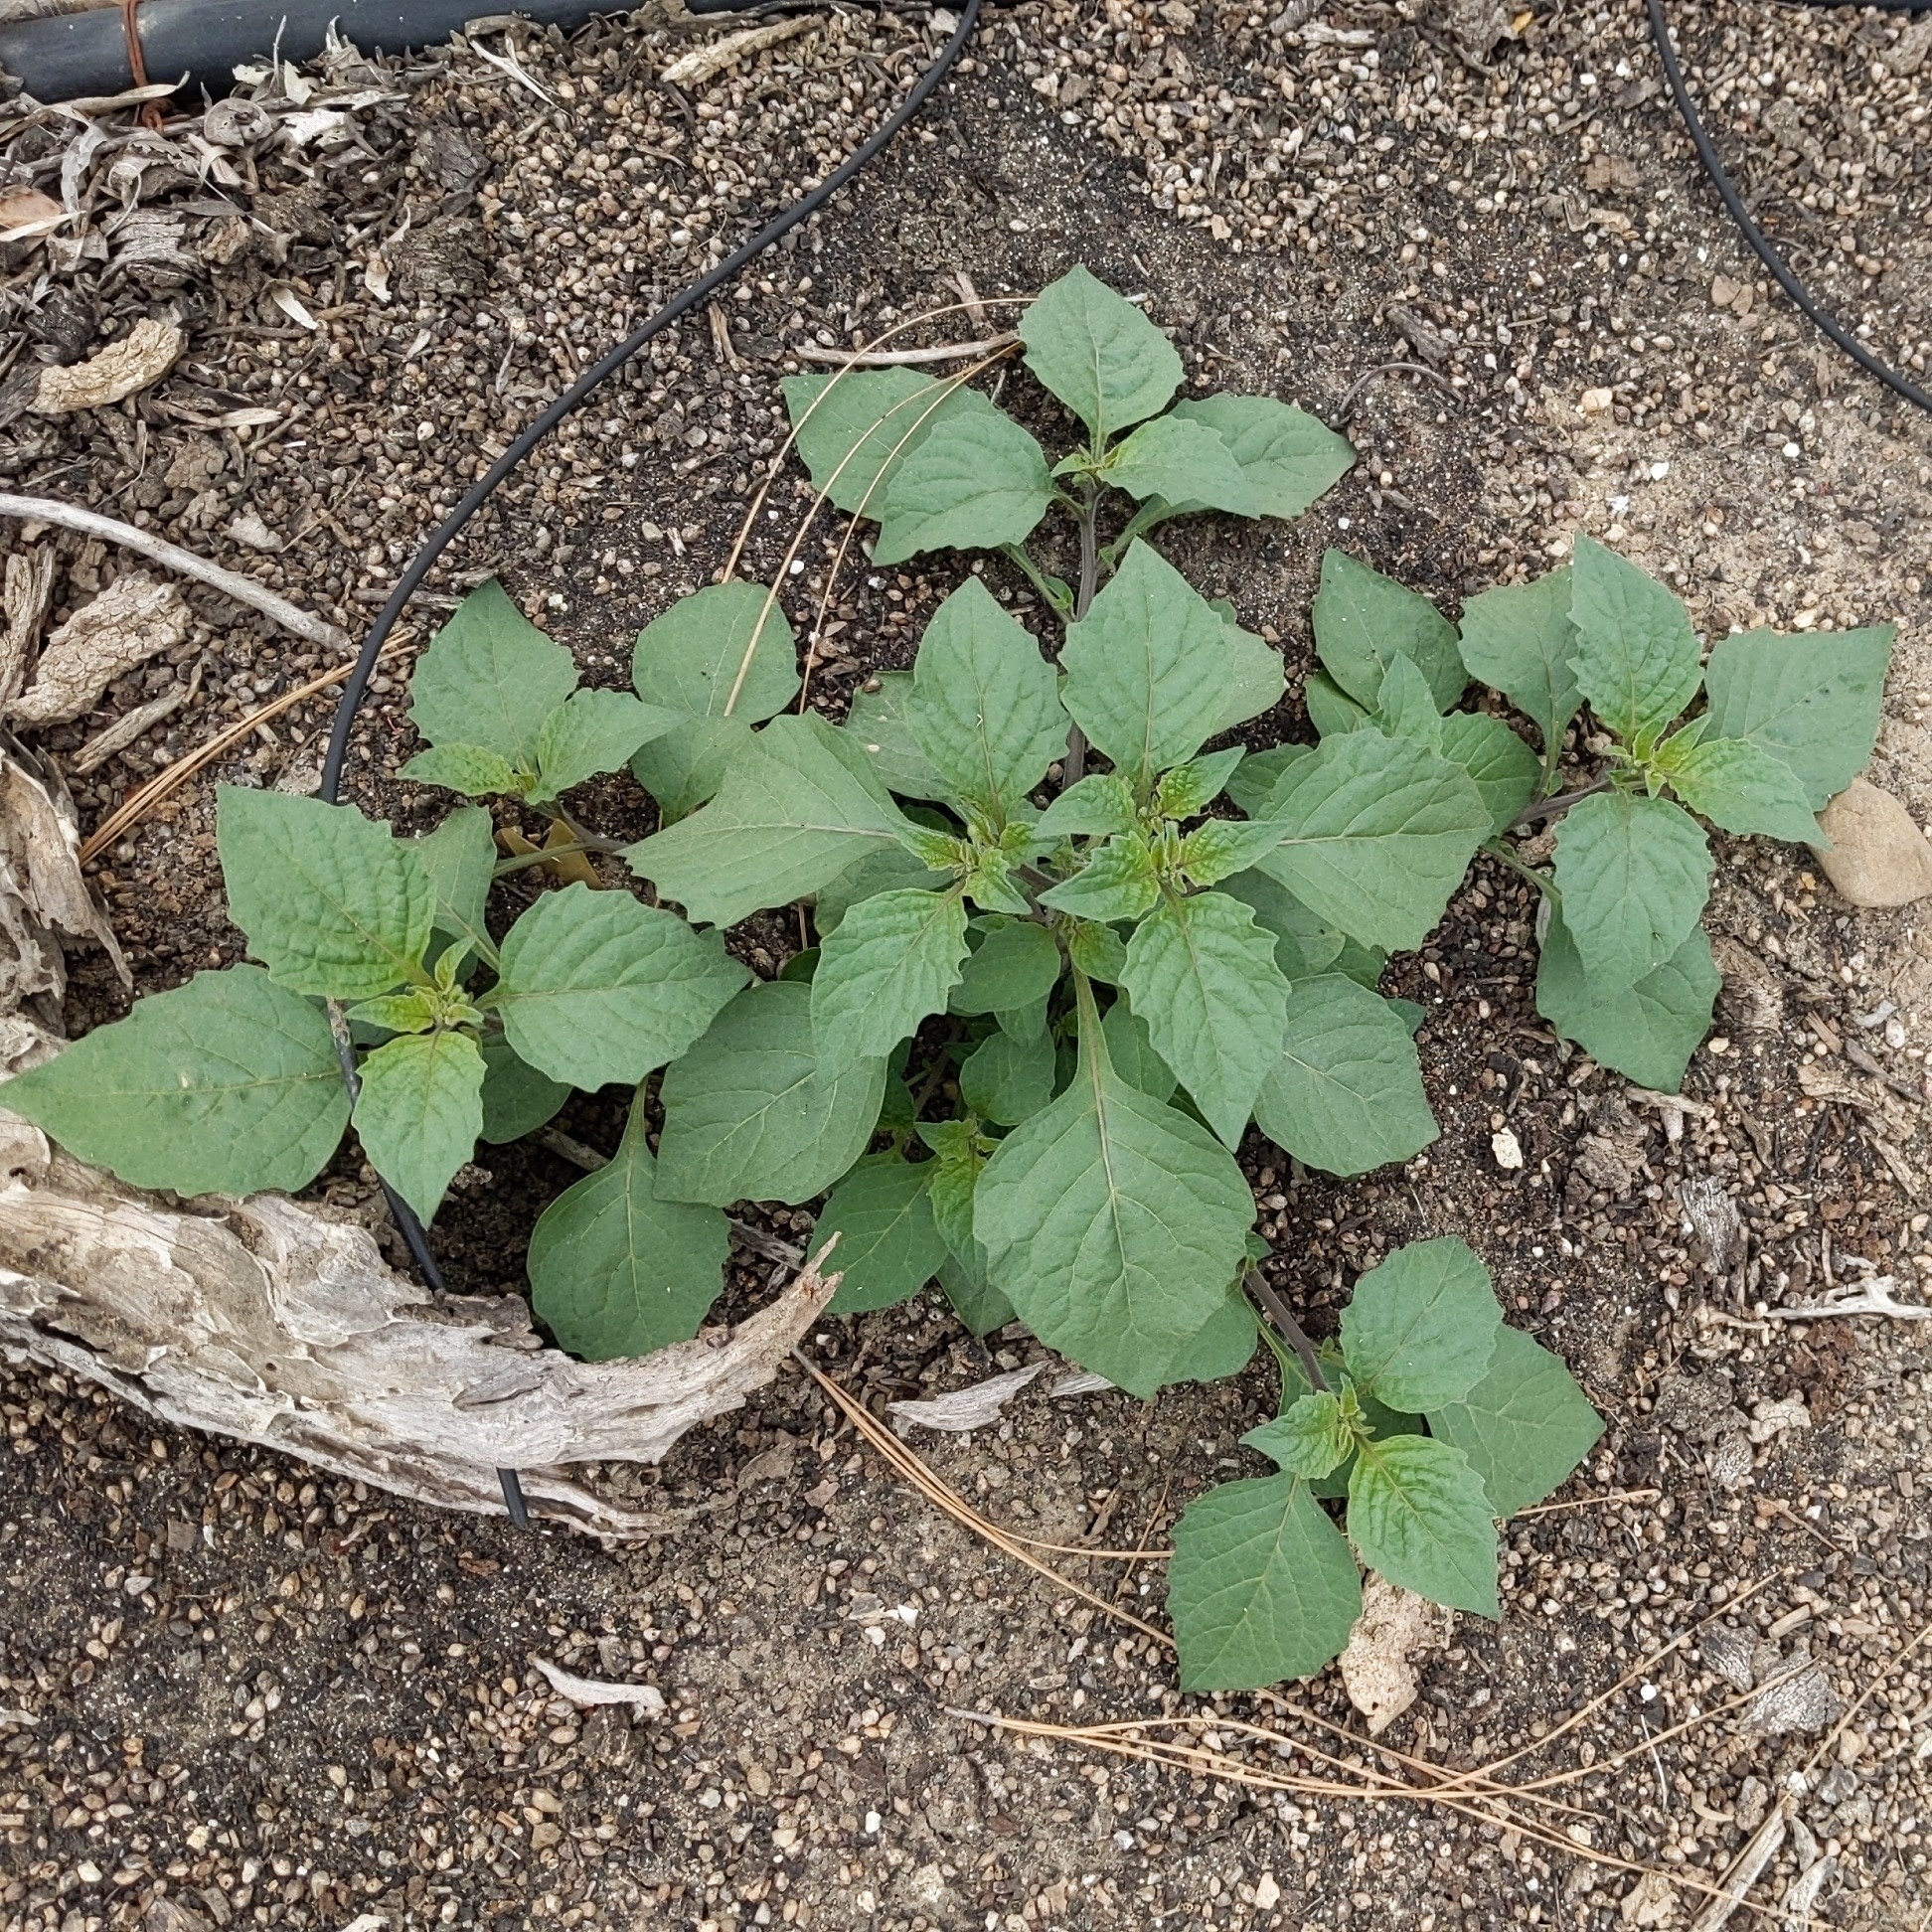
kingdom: Plantae
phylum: Tracheophyta
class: Magnoliopsida
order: Solanales
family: Solanaceae
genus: Solanum
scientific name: Solanum nigrum
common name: Black nightshade
